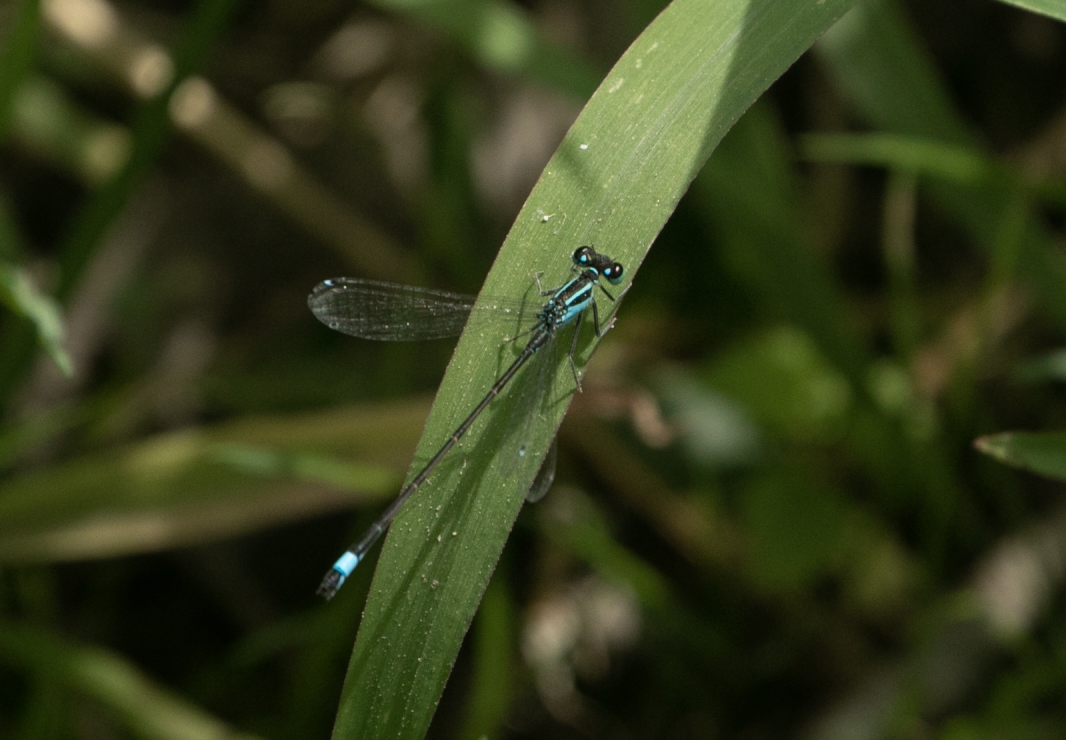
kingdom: Animalia
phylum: Arthropoda
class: Insecta
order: Odonata
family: Coenagrionidae
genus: Ischnura
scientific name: Ischnura elegans
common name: Blue-tailed damselfly
